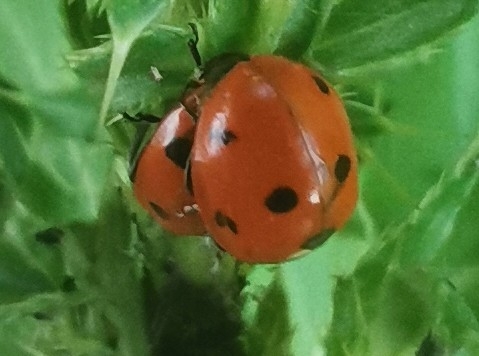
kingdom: Animalia
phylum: Arthropoda
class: Insecta
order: Coleoptera
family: Coccinellidae
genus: Coccinella
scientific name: Coccinella septempunctata
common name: Sevenspotted lady beetle
